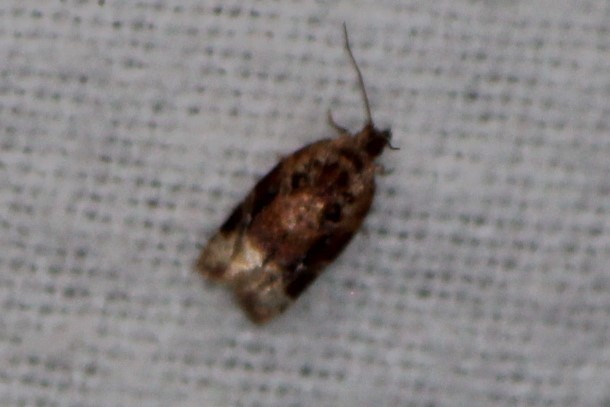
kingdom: Animalia
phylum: Arthropoda
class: Insecta
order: Lepidoptera
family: Tortricidae
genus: Argyrotaenia
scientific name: Argyrotaenia velutinana
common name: Red-banded leafroller moth
